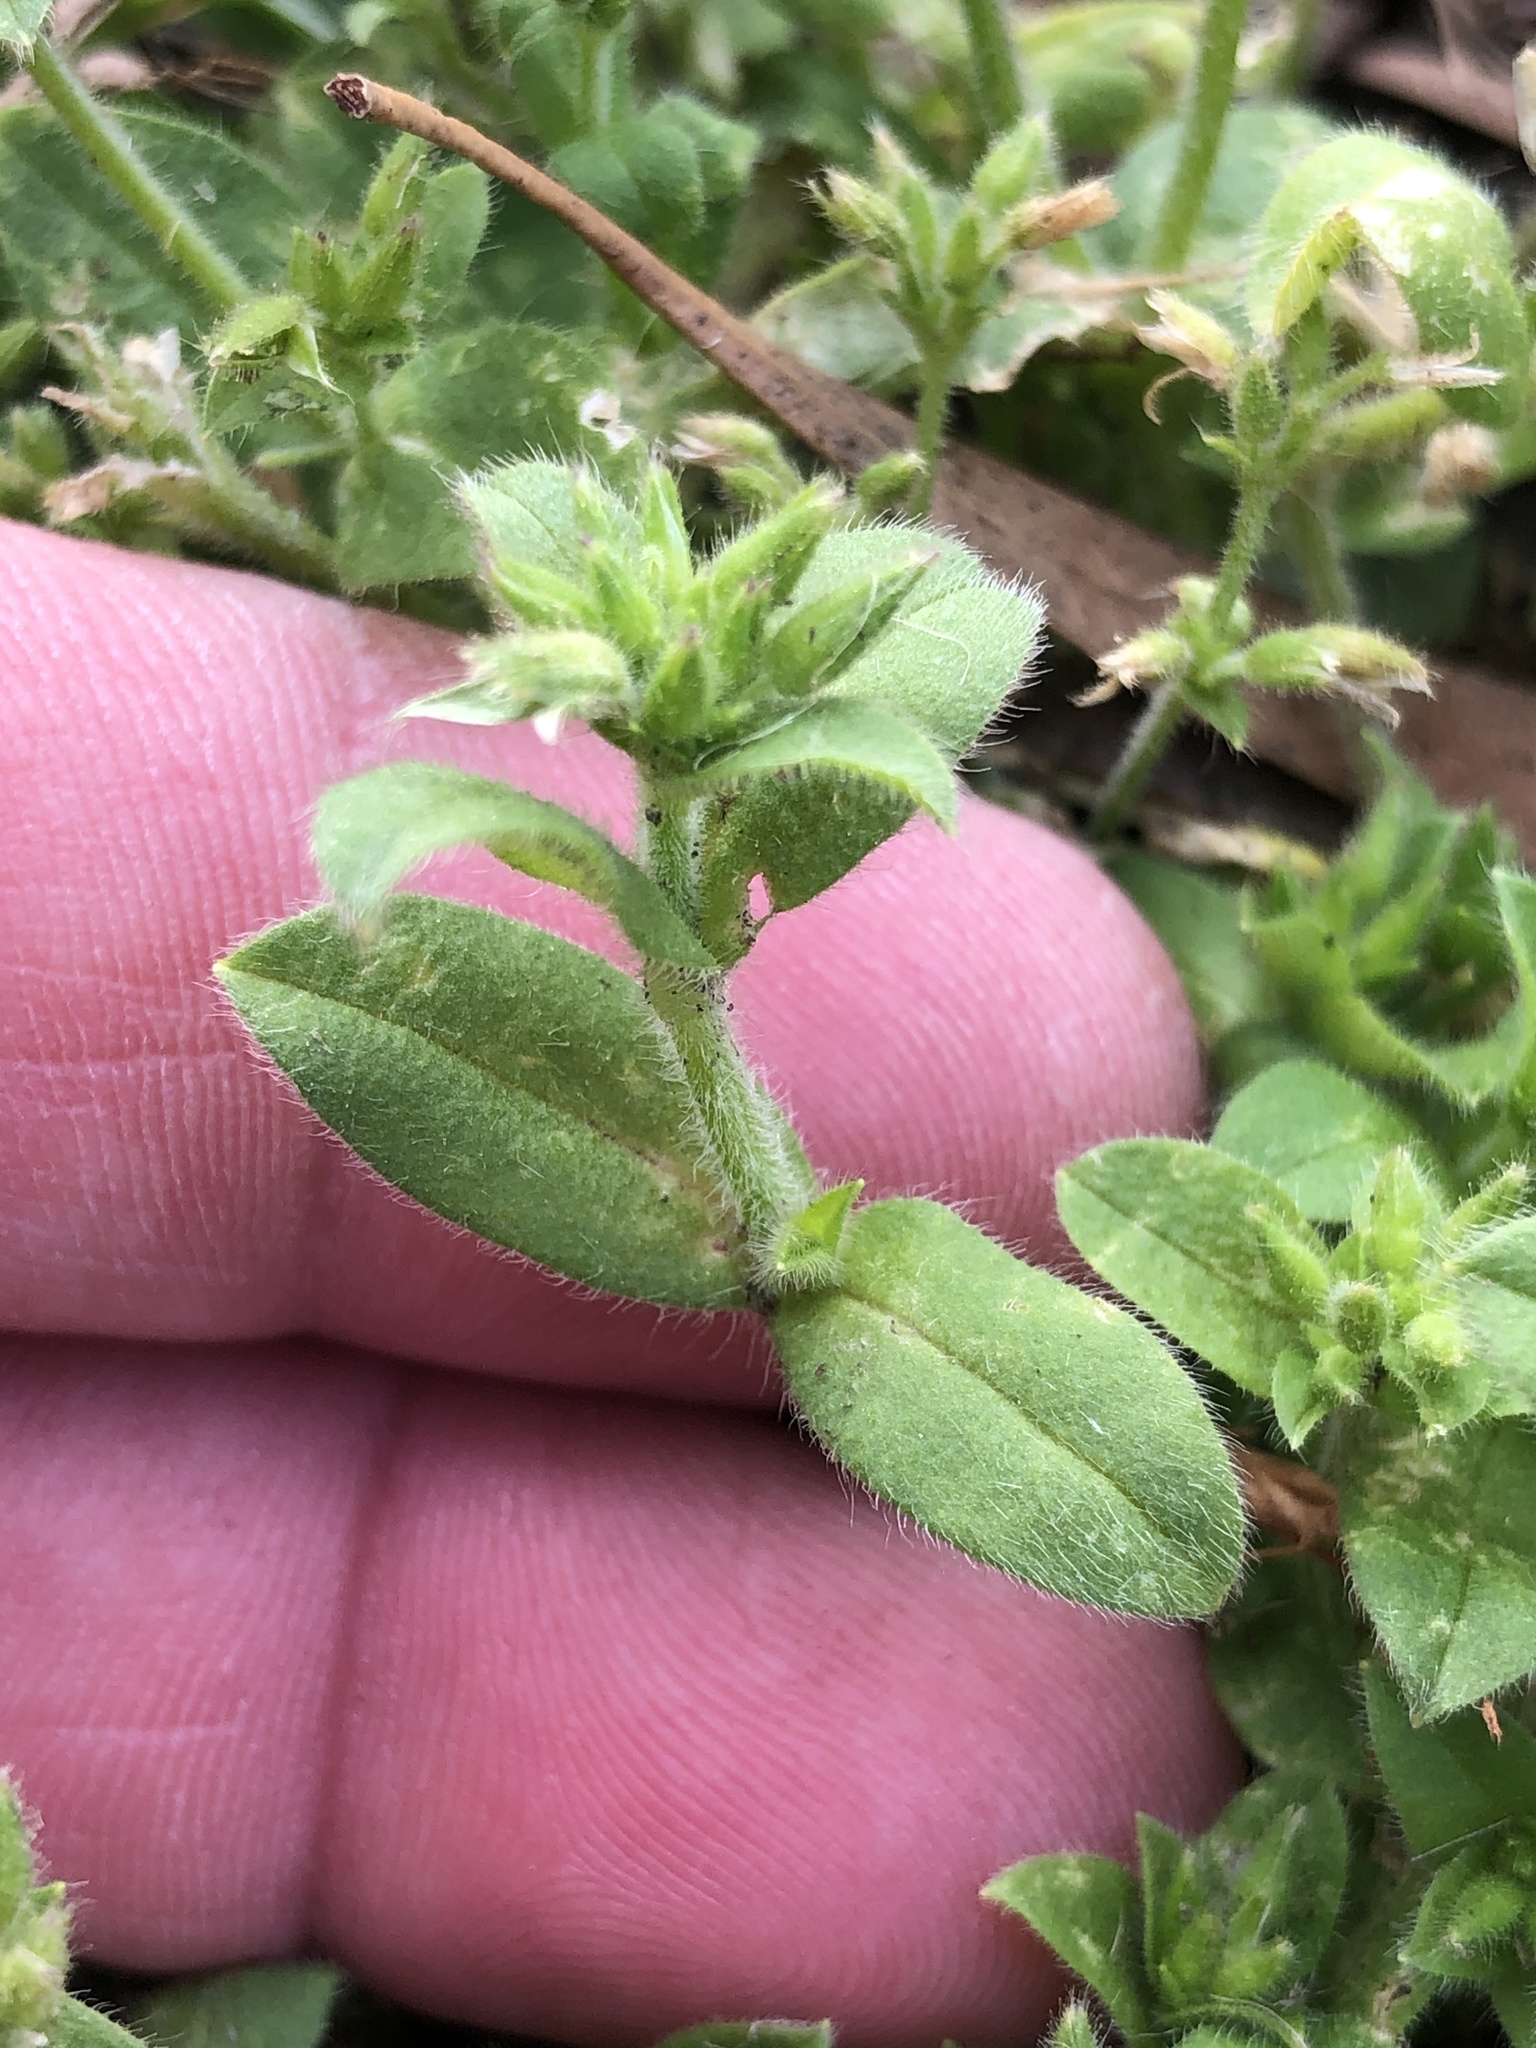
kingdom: Plantae
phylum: Tracheophyta
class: Magnoliopsida
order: Caryophyllales
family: Caryophyllaceae
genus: Cerastium
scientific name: Cerastium glomeratum
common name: Sticky chickweed
